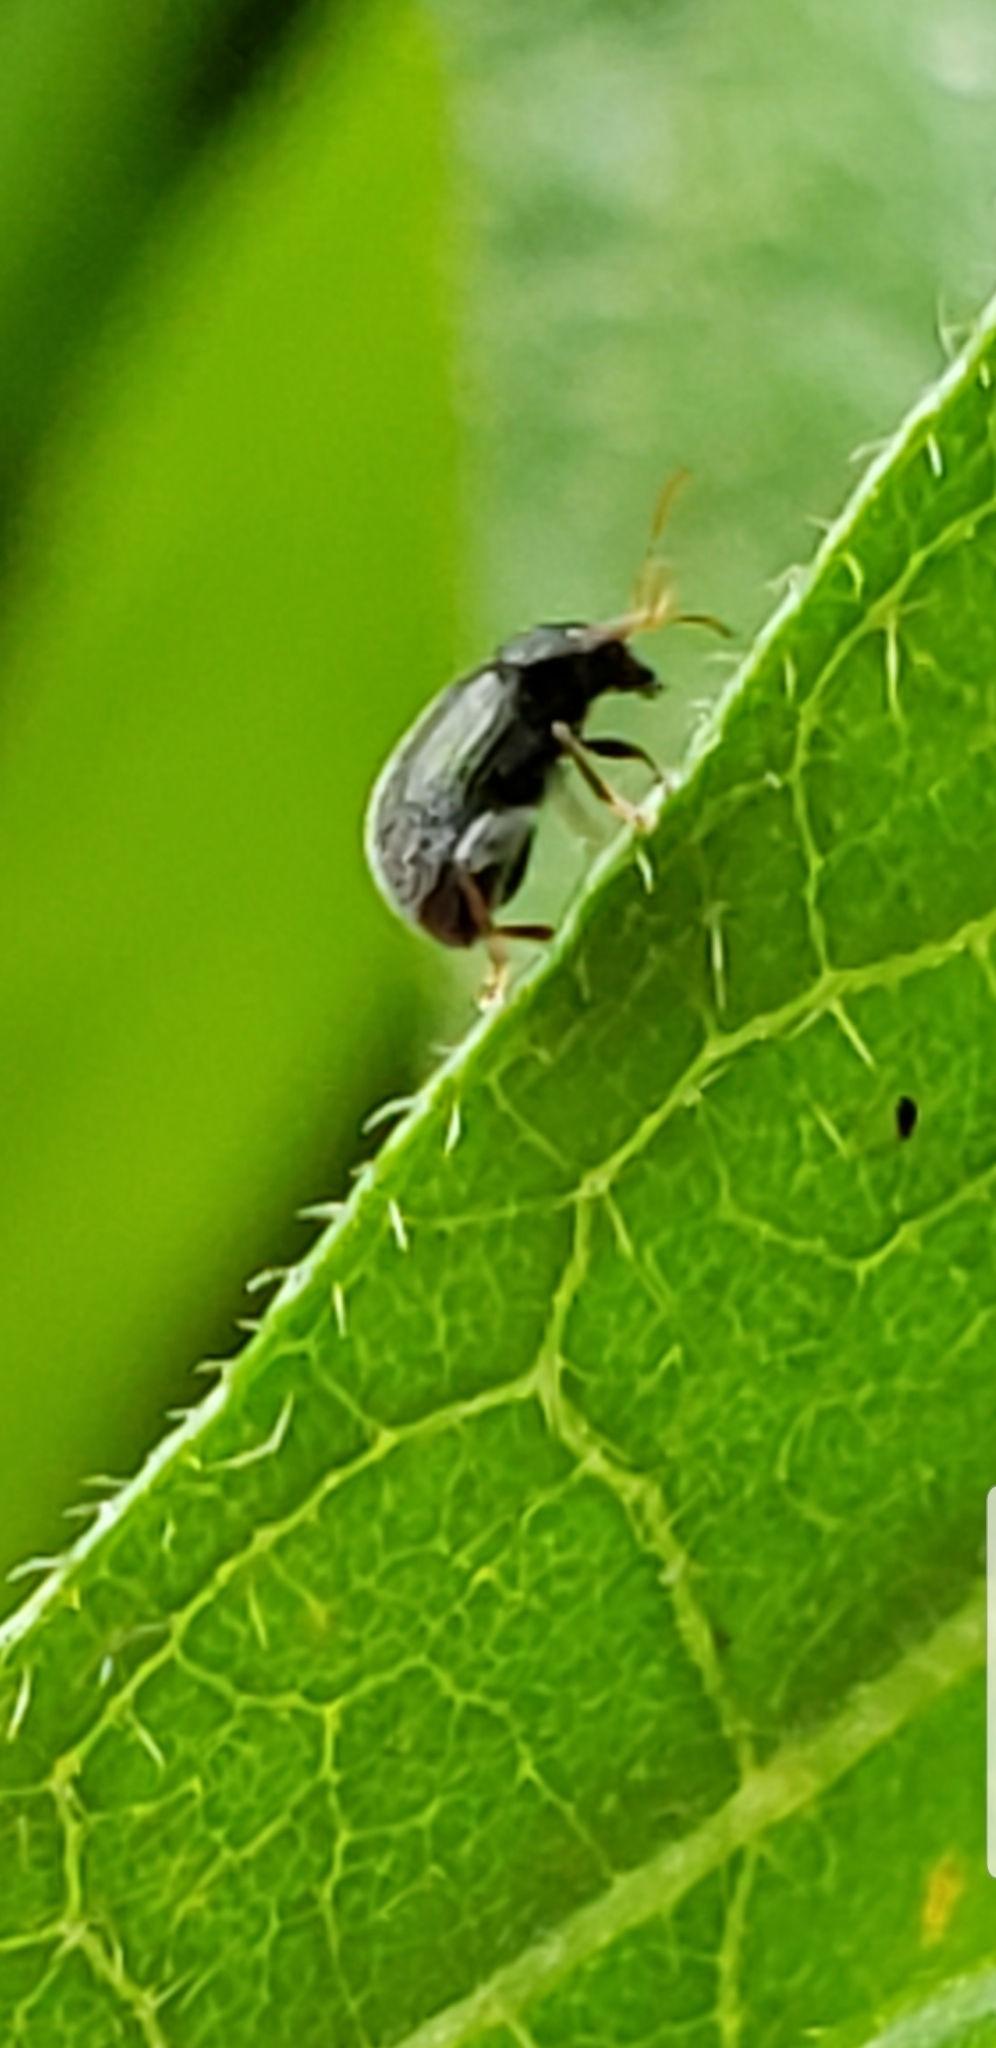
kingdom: Animalia
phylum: Arthropoda
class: Insecta
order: Coleoptera
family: Chrysomelidae
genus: Epitrix
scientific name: Epitrix fuscula
